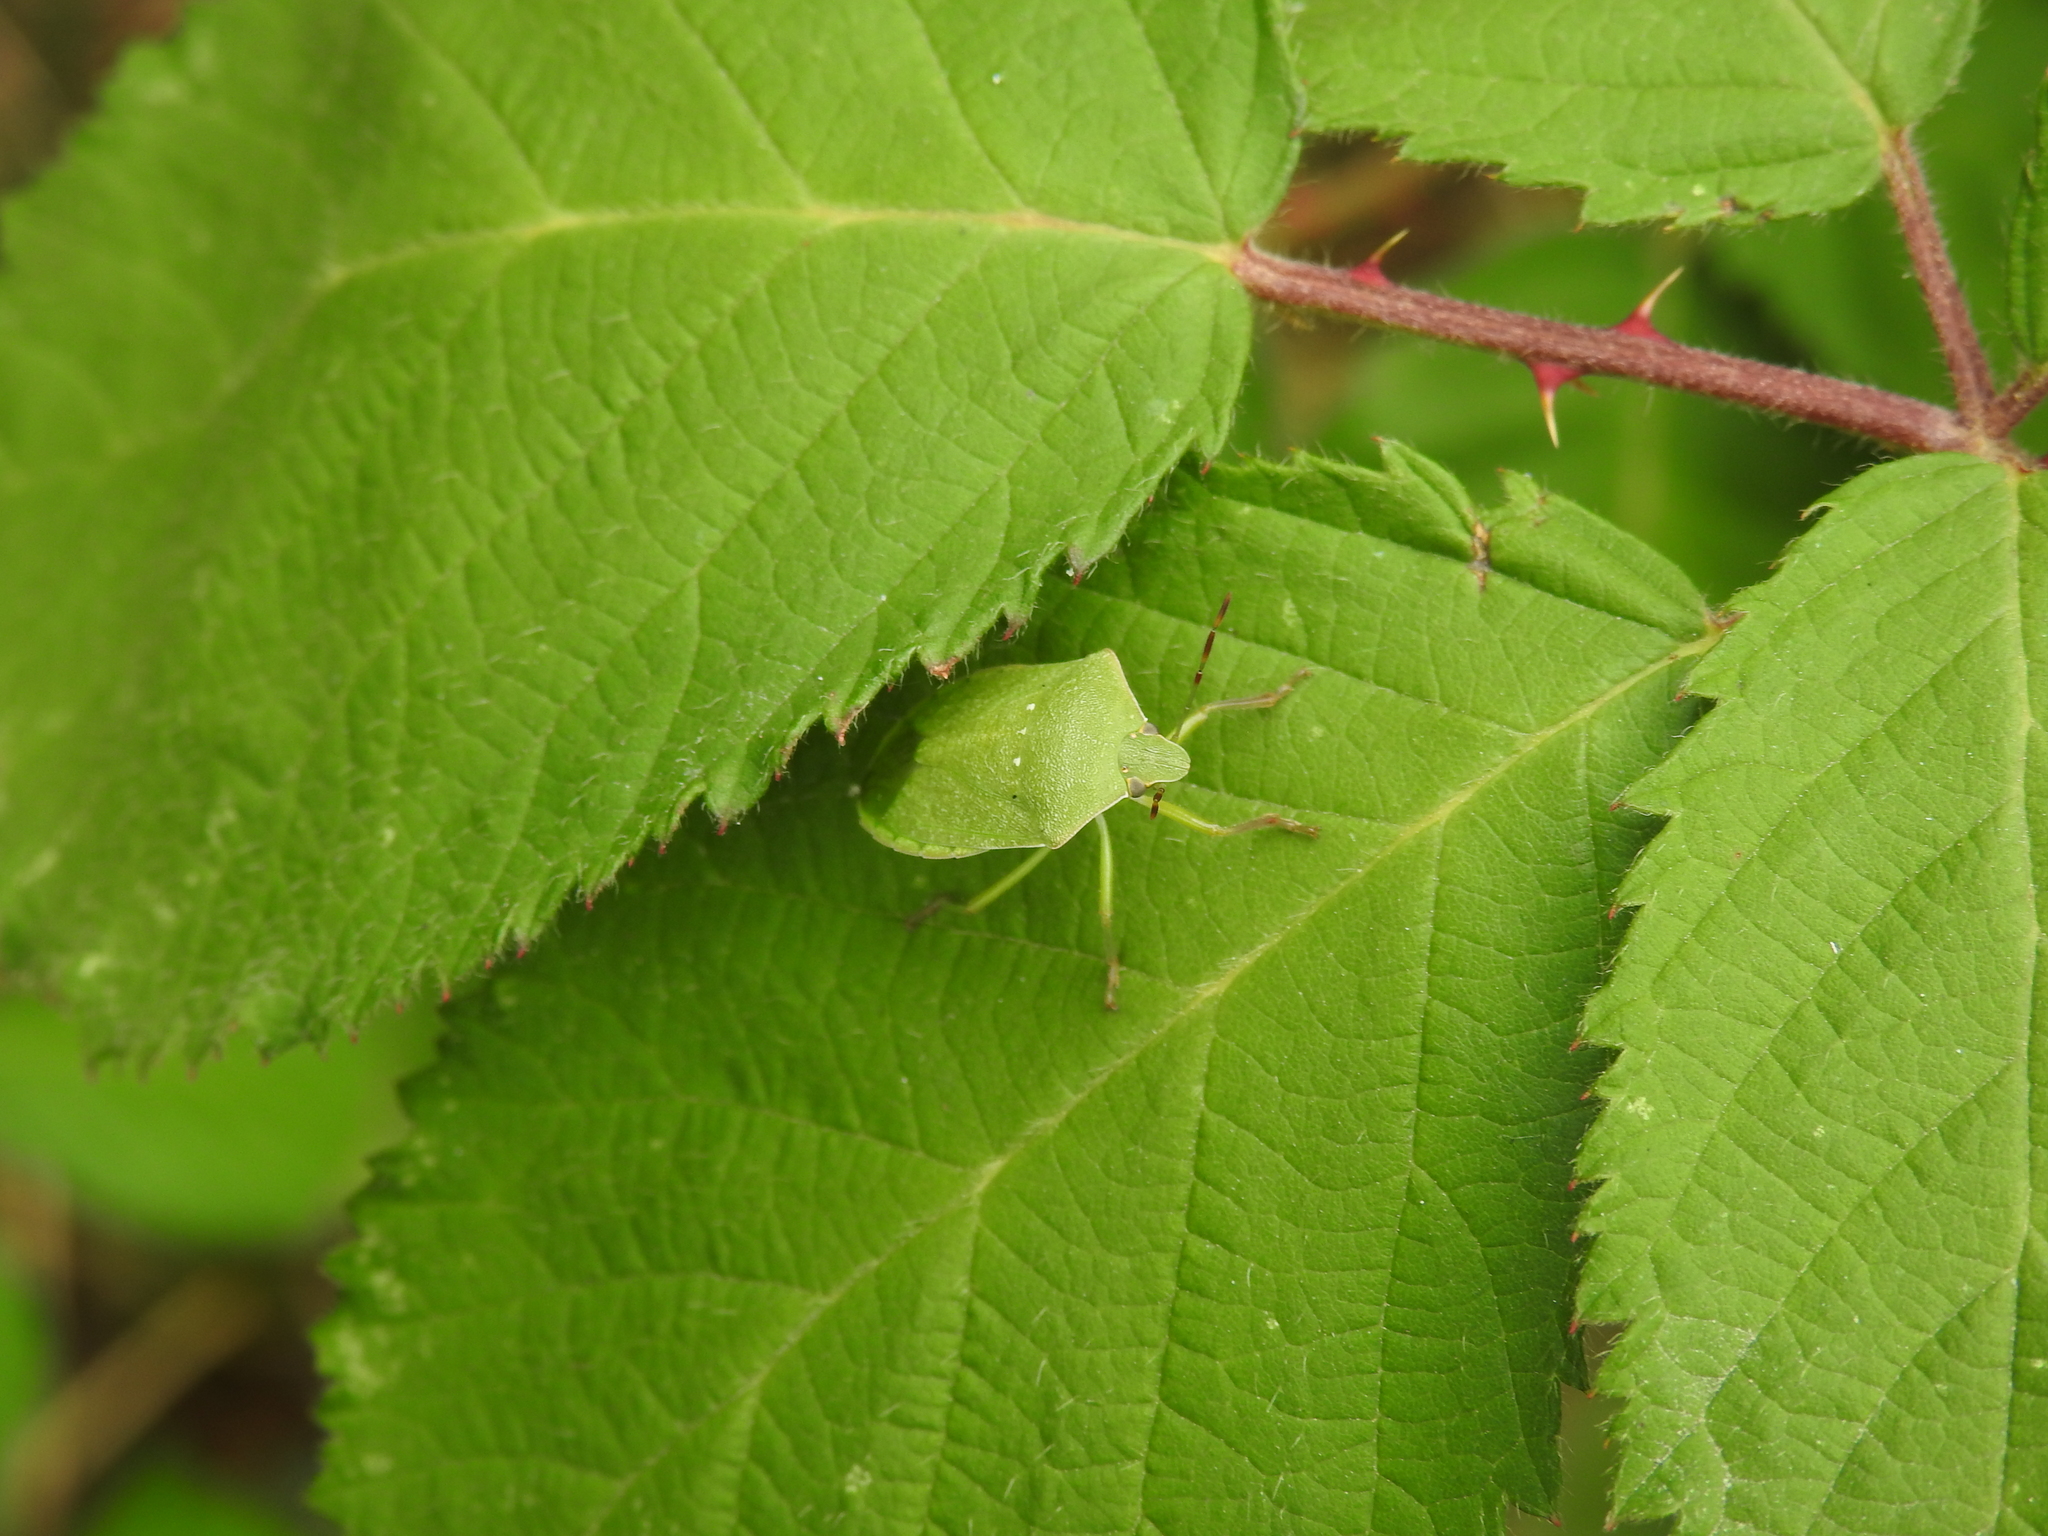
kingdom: Animalia
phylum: Arthropoda
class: Insecta
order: Hemiptera
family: Pentatomidae
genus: Nezara
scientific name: Nezara viridula
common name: Southern green stink bug
